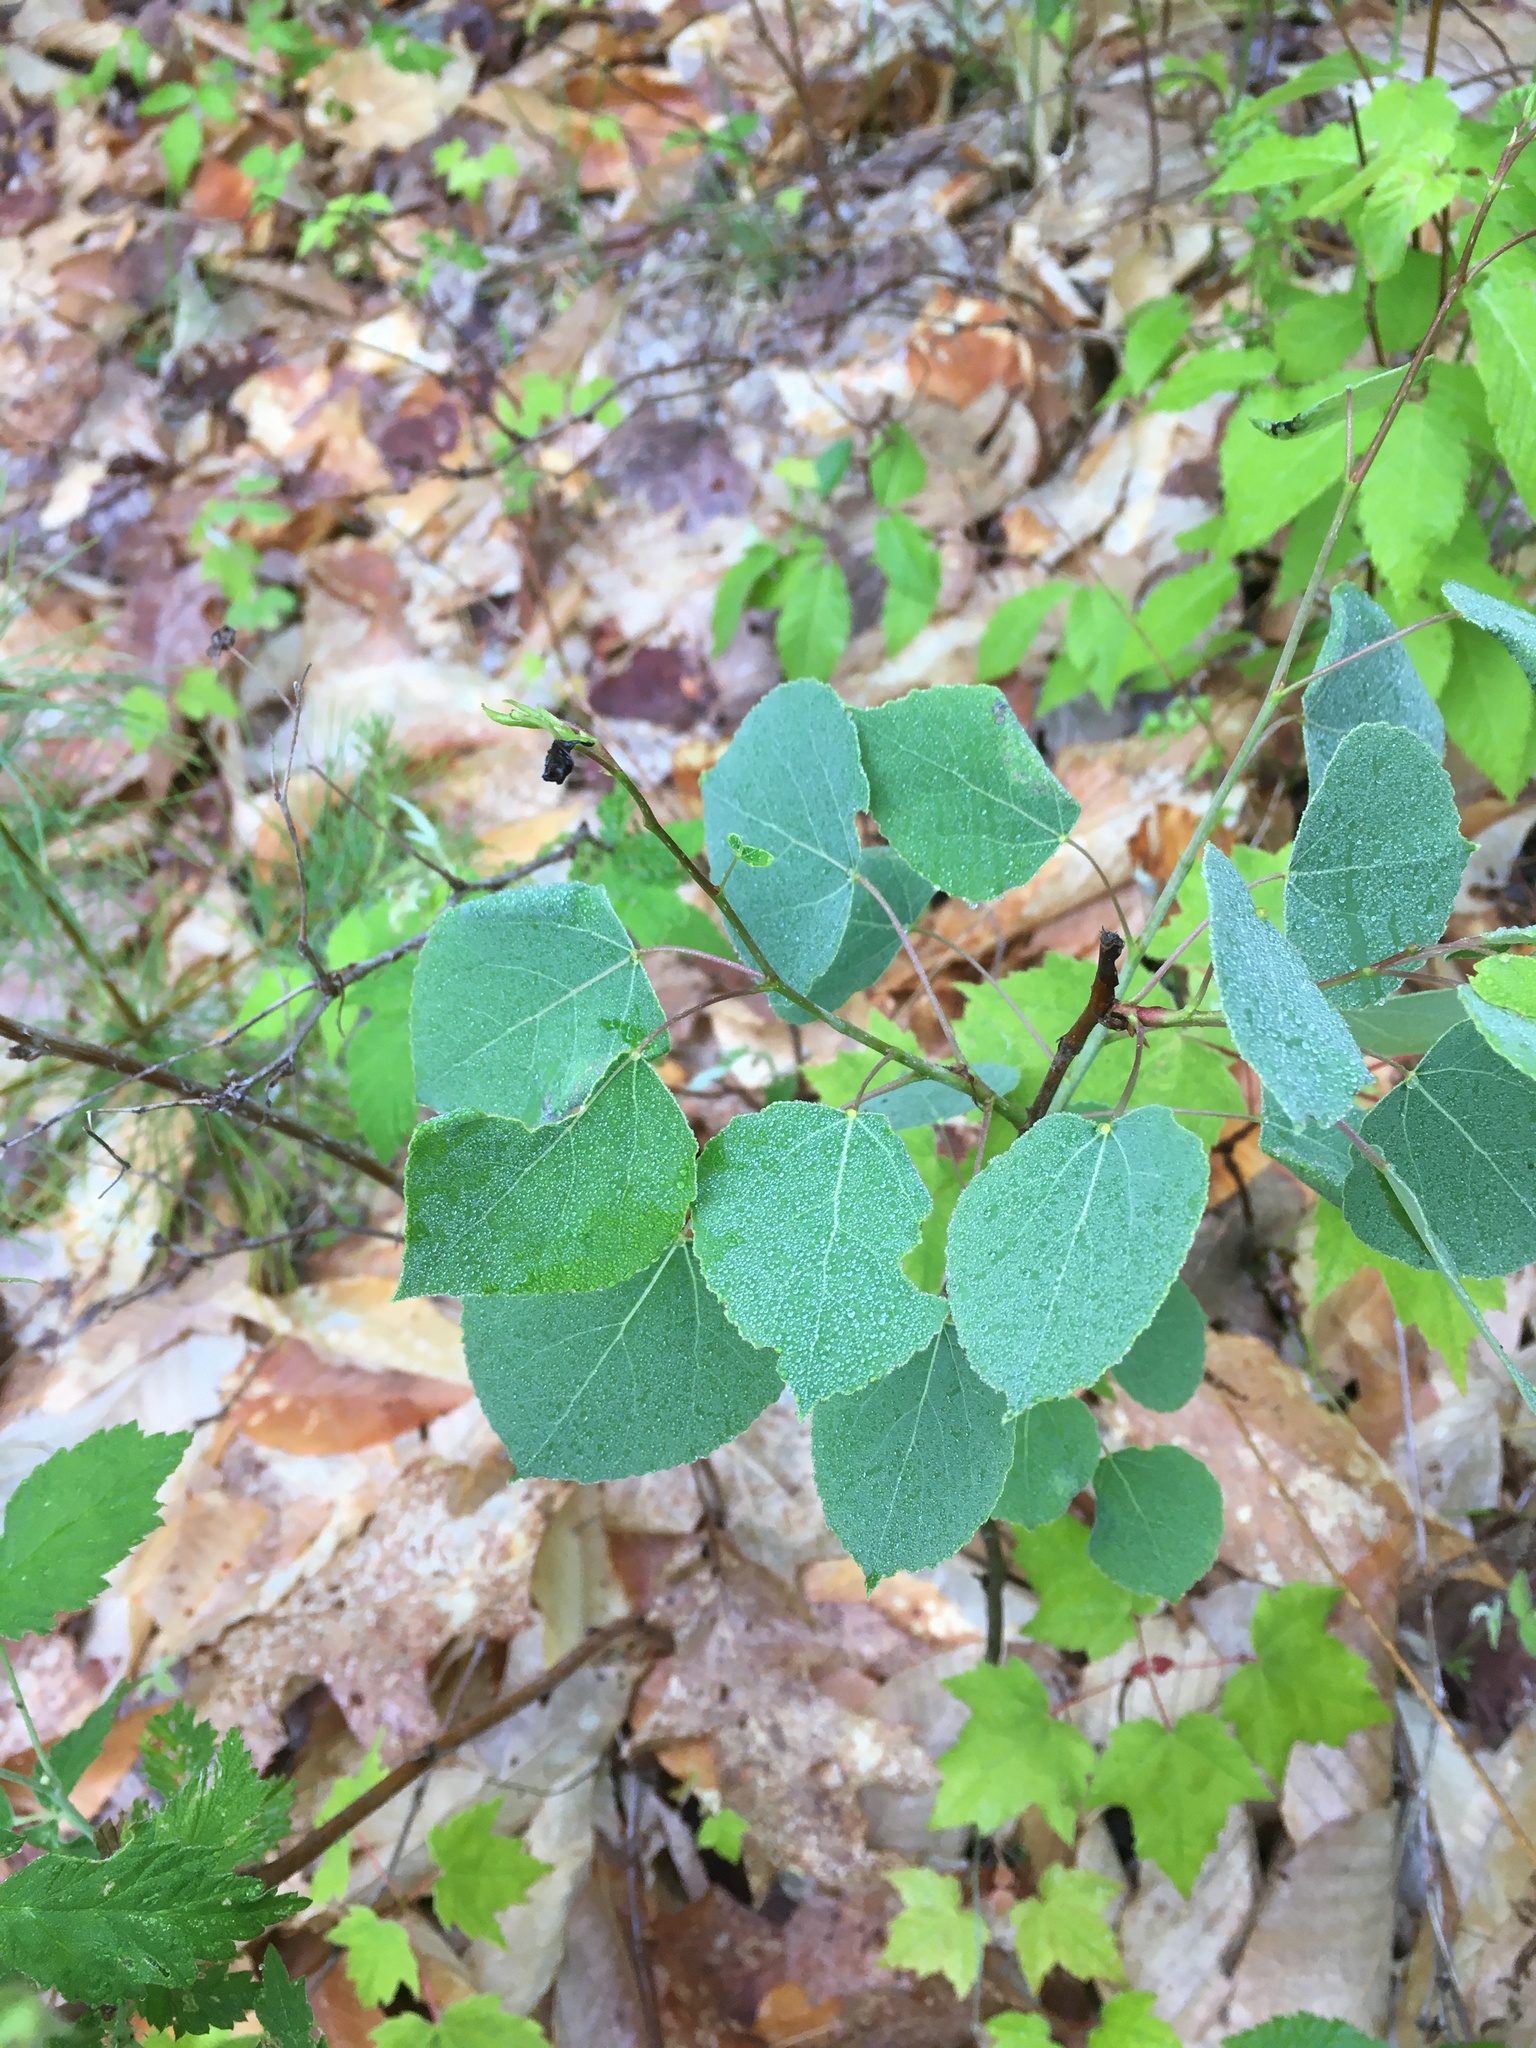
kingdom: Plantae
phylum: Tracheophyta
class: Magnoliopsida
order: Malpighiales
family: Salicaceae
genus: Populus
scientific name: Populus tremuloides
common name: Quaking aspen
